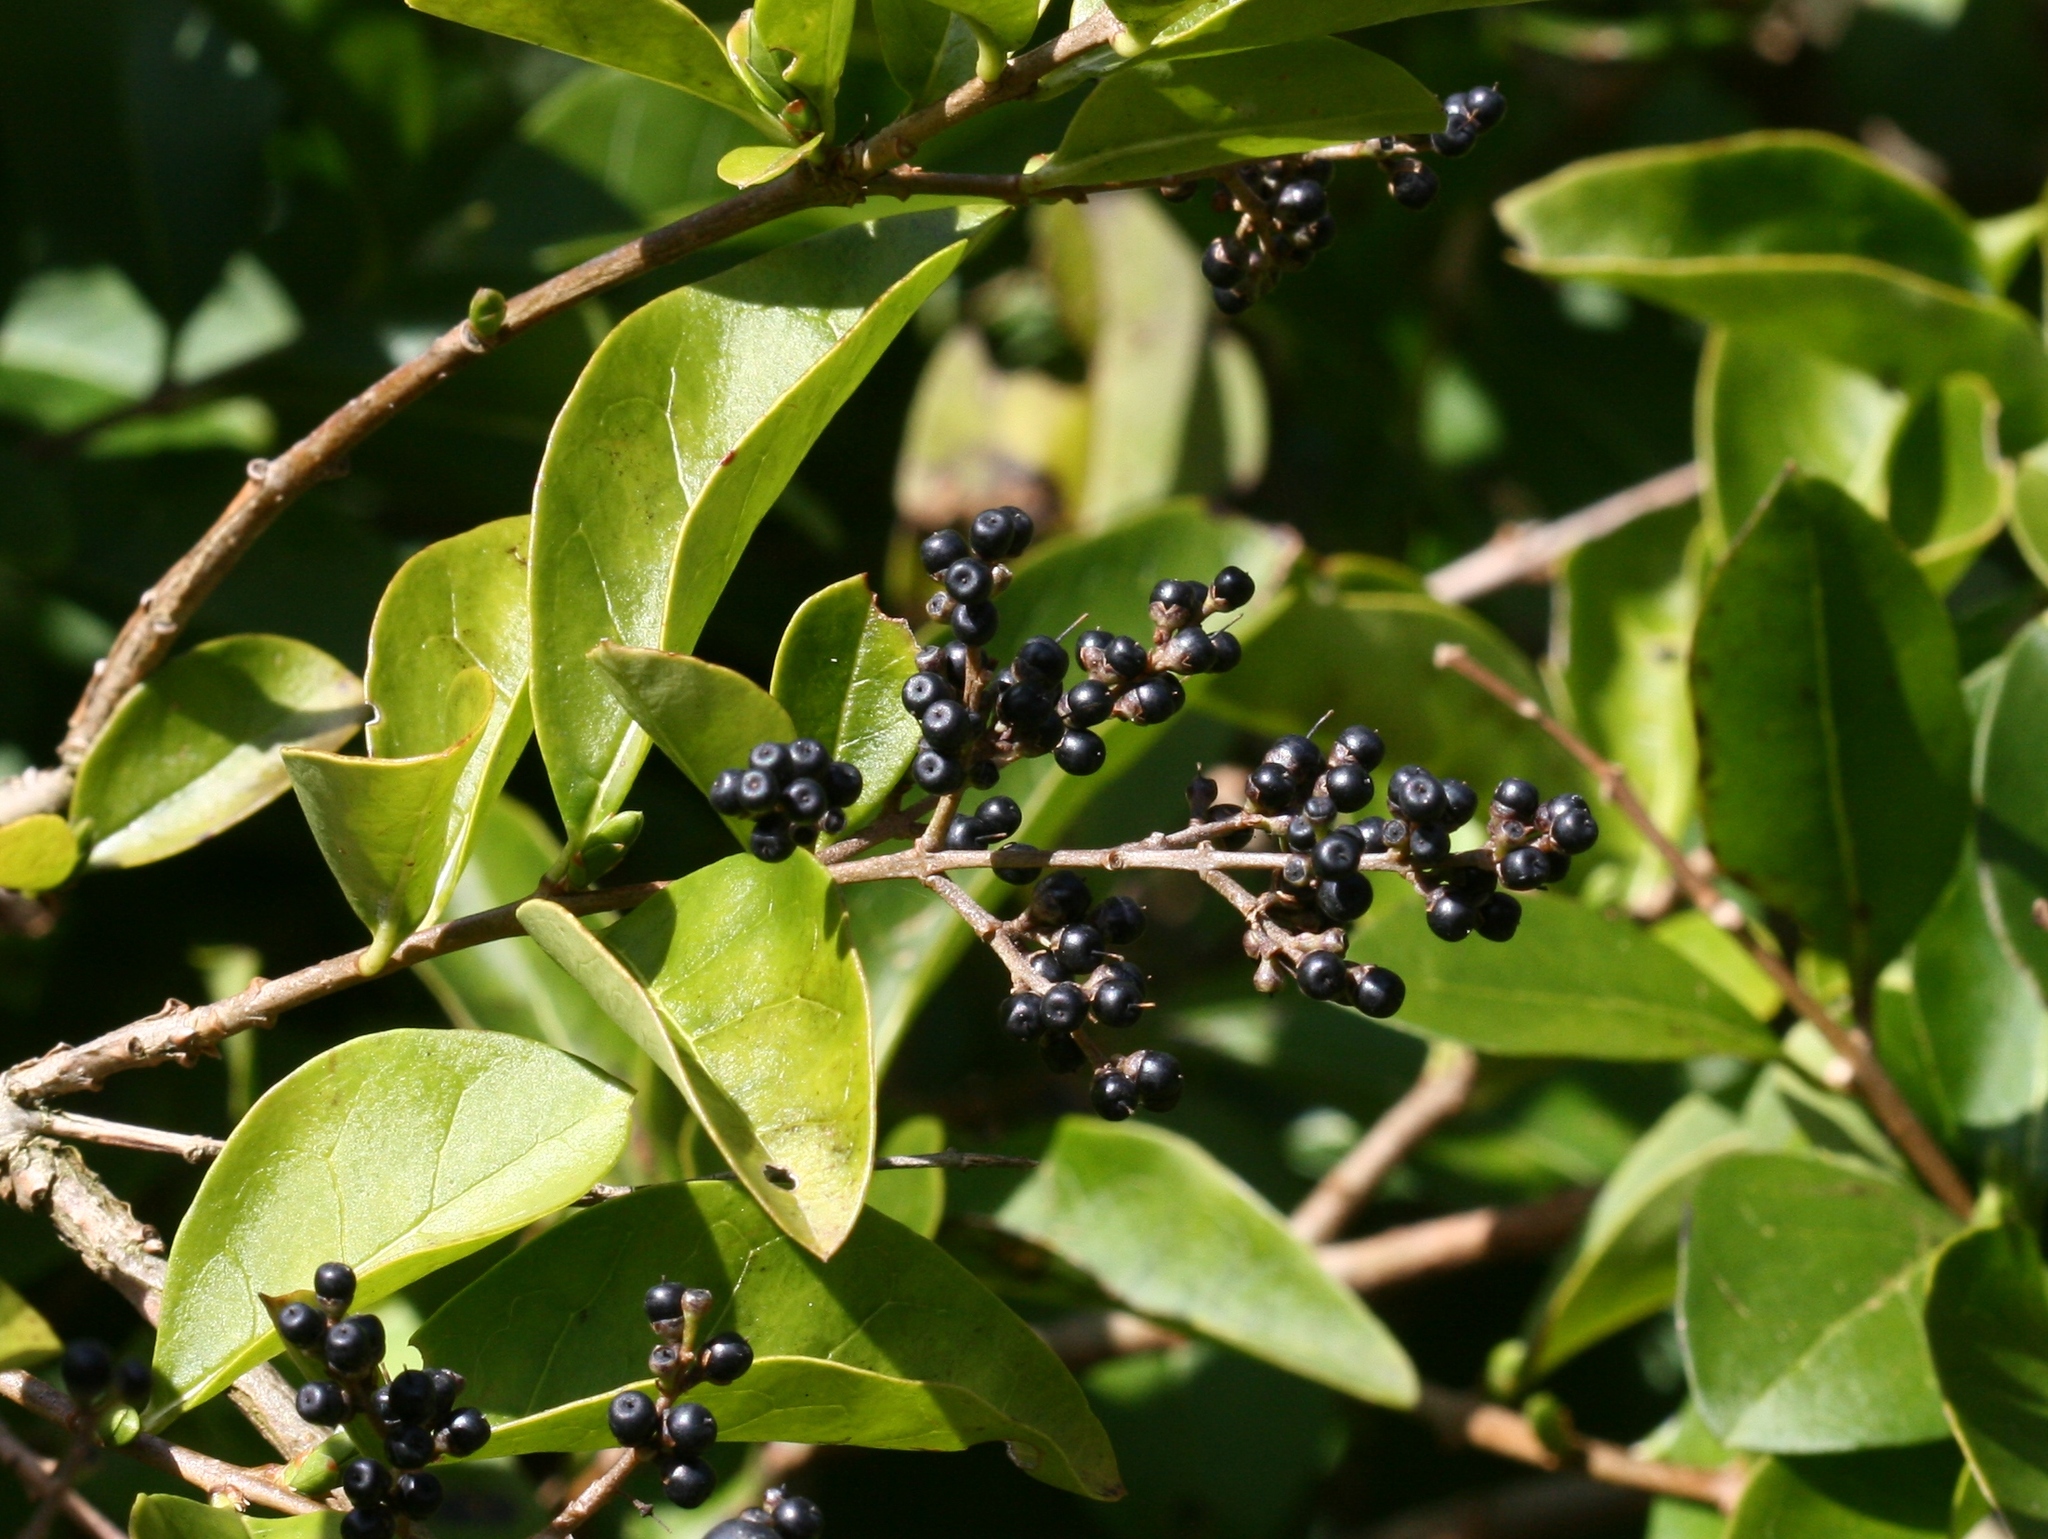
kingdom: Plantae
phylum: Tracheophyta
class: Magnoliopsida
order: Lamiales
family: Oleaceae
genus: Ligustrum
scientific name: Ligustrum ovalifolium
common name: California privet
